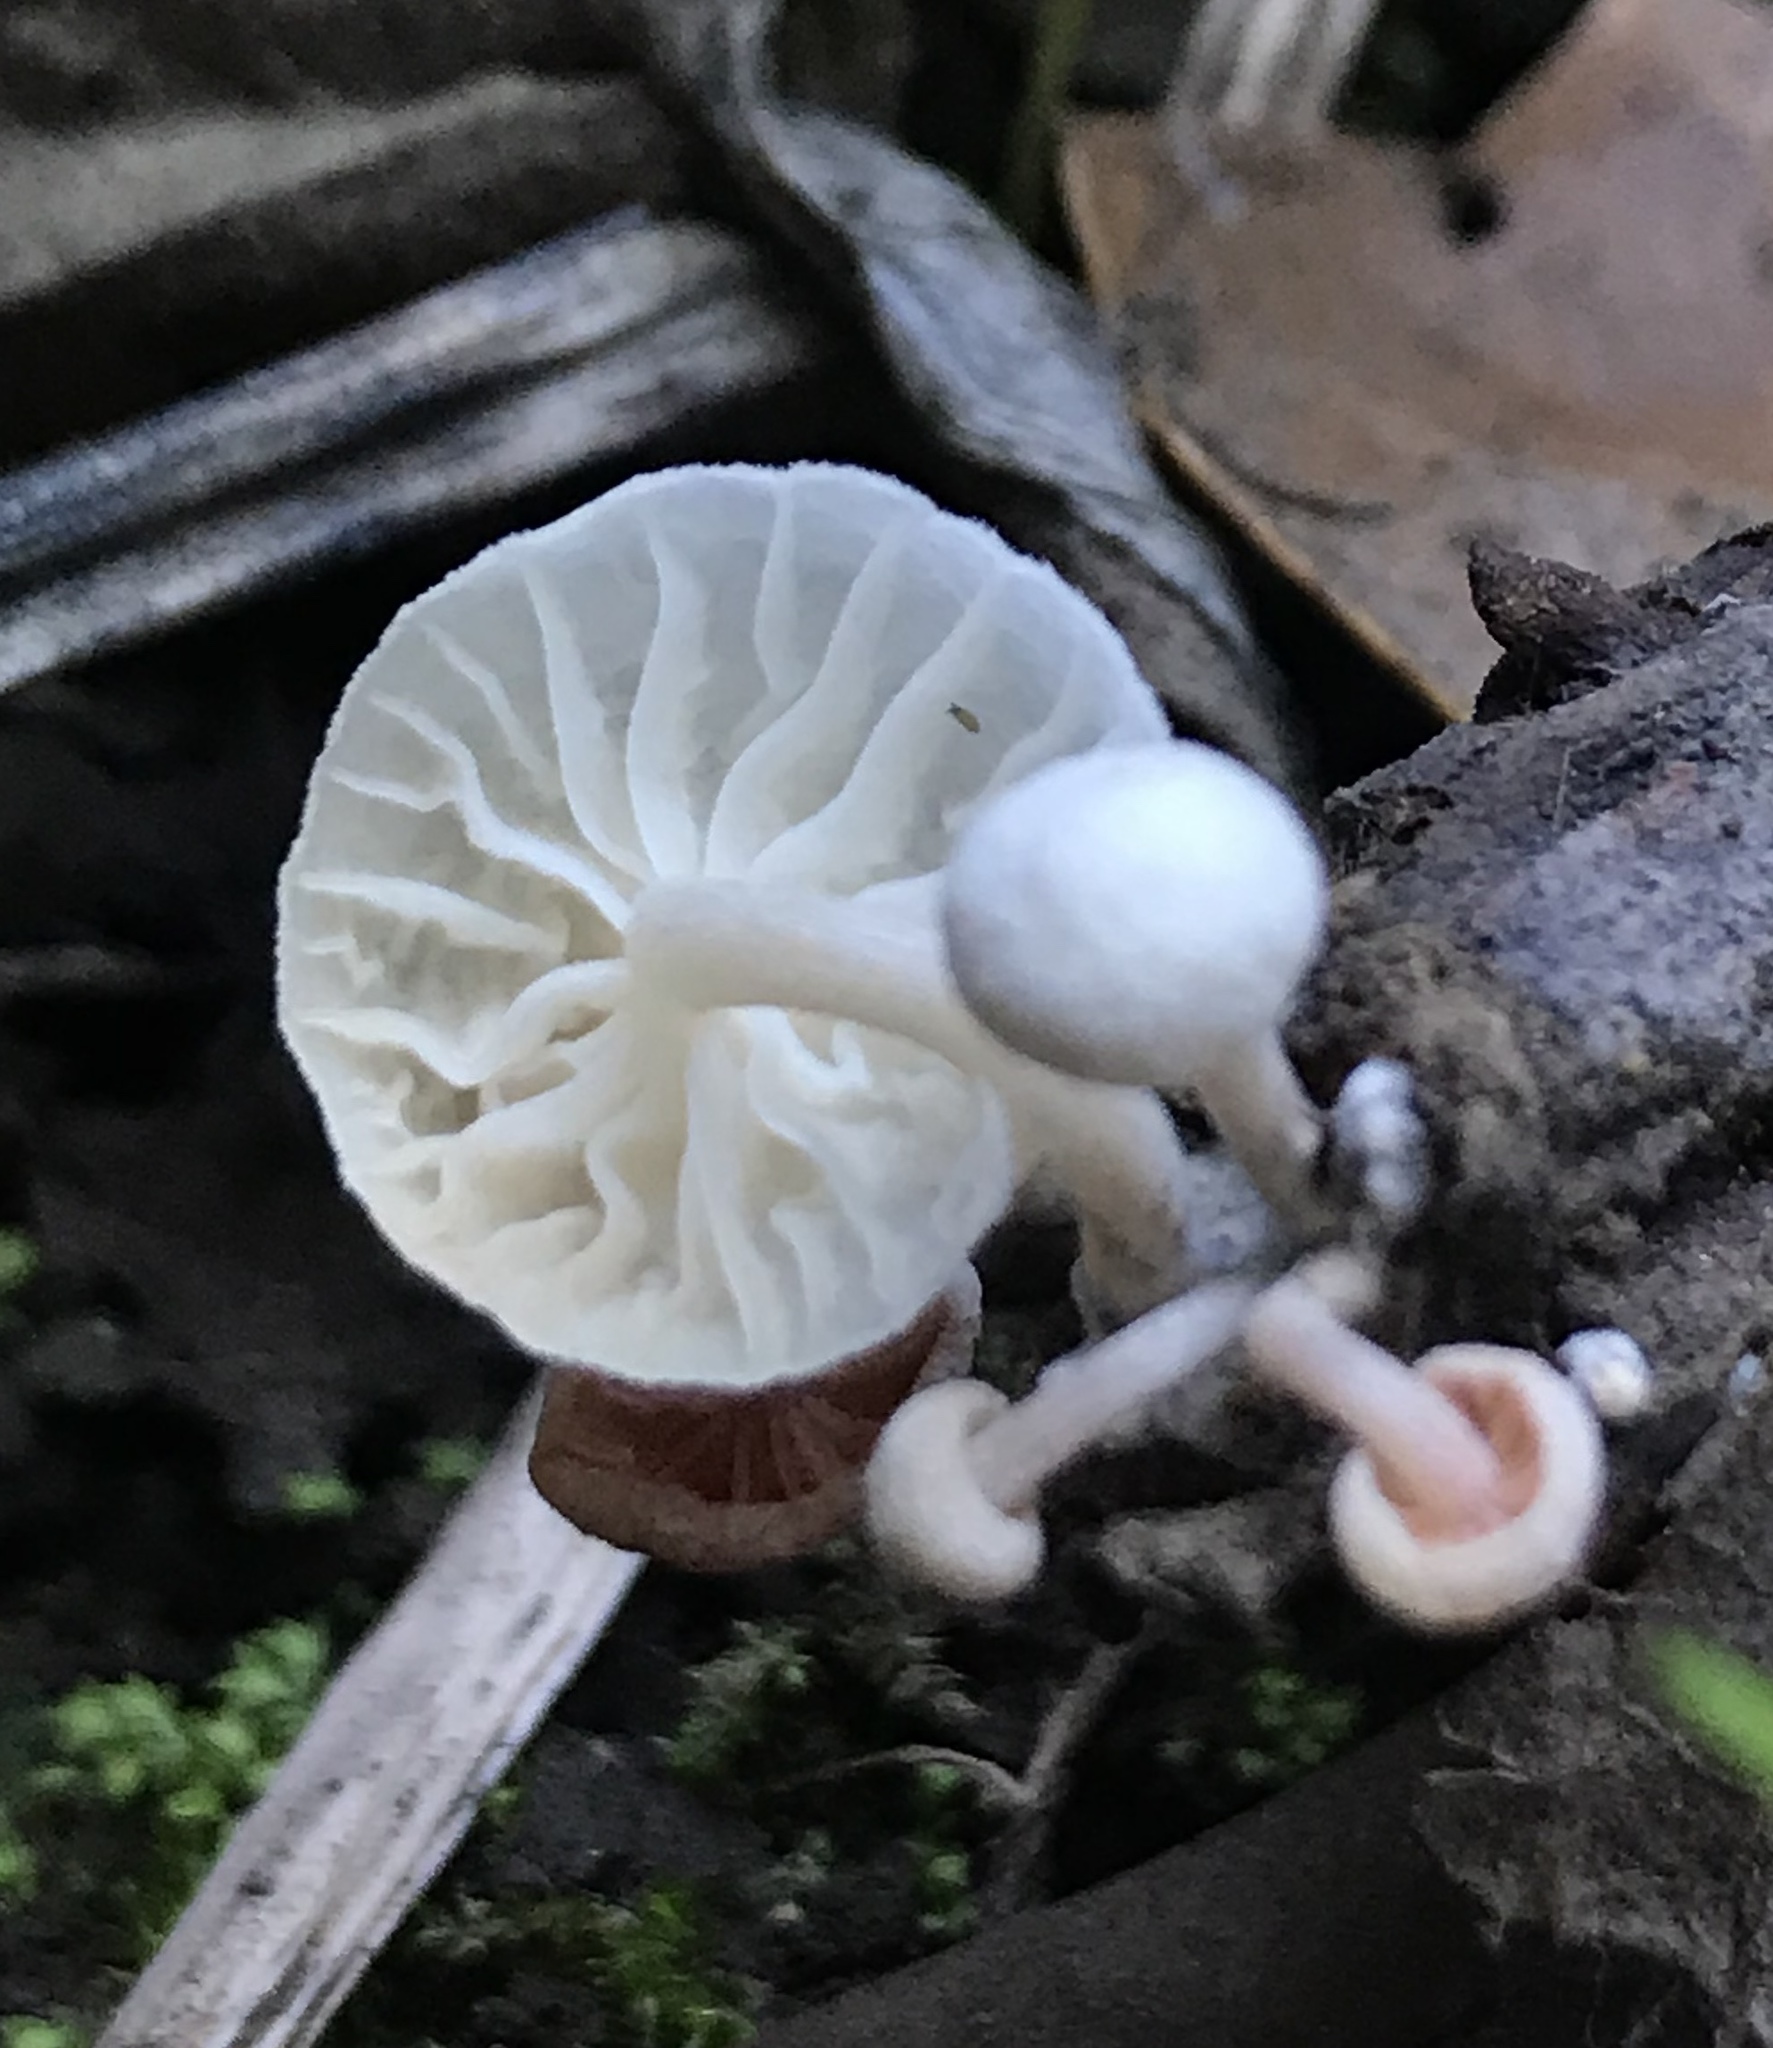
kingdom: Fungi
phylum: Basidiomycota
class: Agaricomycetes
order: Agaricales
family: Omphalotaceae
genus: Marasmiellus
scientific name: Marasmiellus candidus
